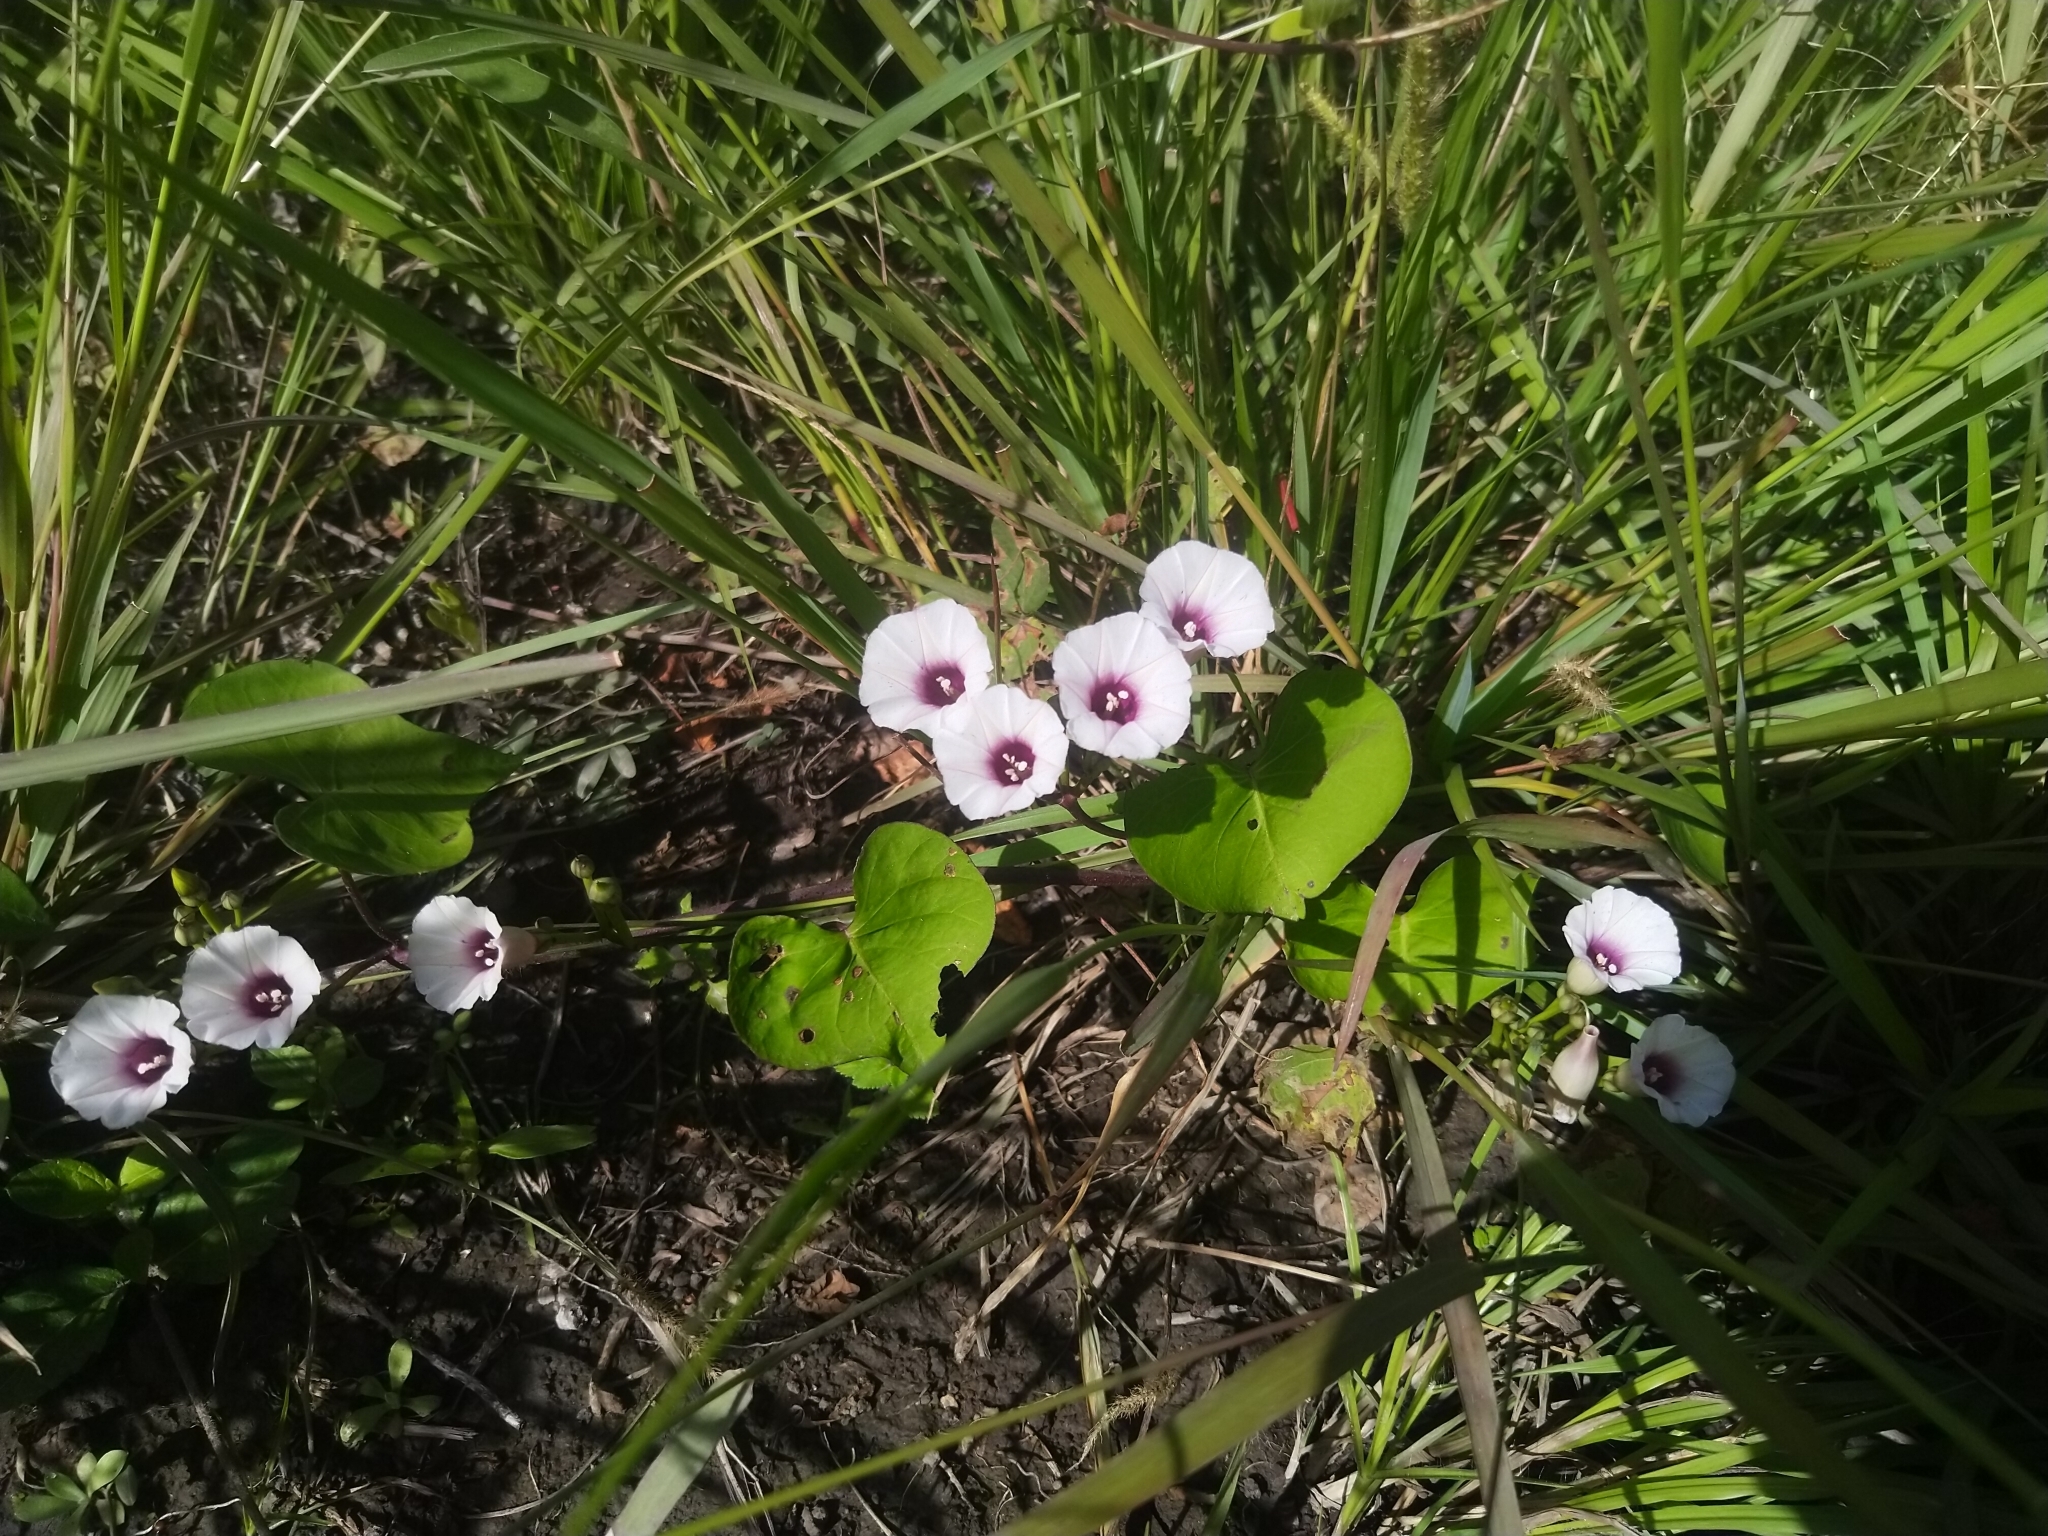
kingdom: Plantae
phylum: Tracheophyta
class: Magnoliopsida
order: Solanales
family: Convolvulaceae
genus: Ipomoea
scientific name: Ipomoea amnicola
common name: Redcenter morning-glory
